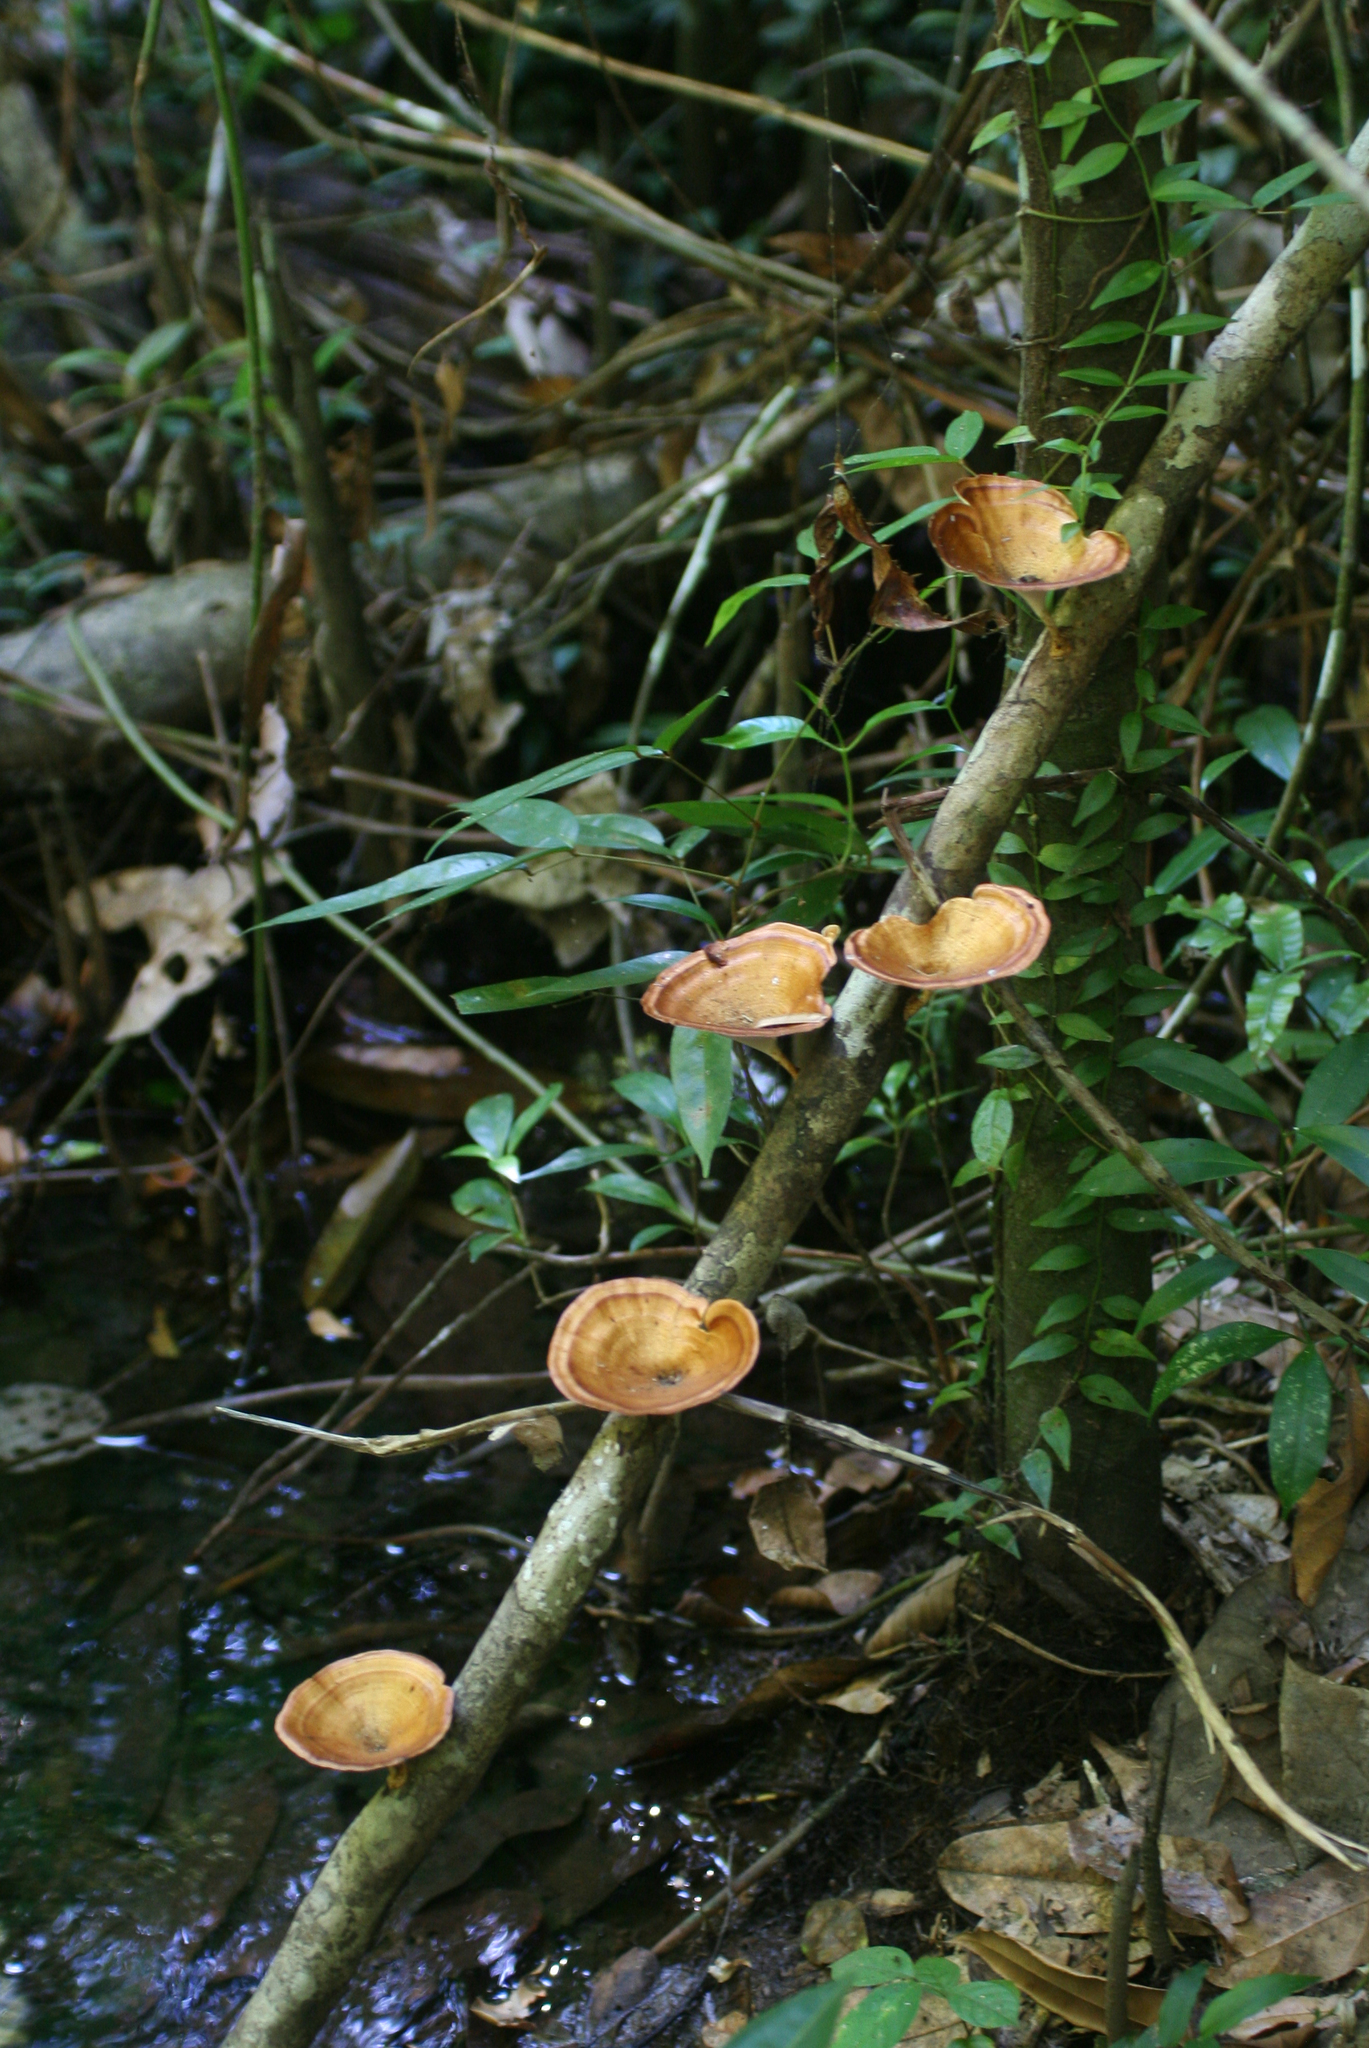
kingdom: Fungi
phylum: Basidiomycota
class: Agaricomycetes
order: Polyporales
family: Polyporaceae
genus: Microporus
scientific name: Microporus xanthopus
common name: Yellow-stemmed micropore
